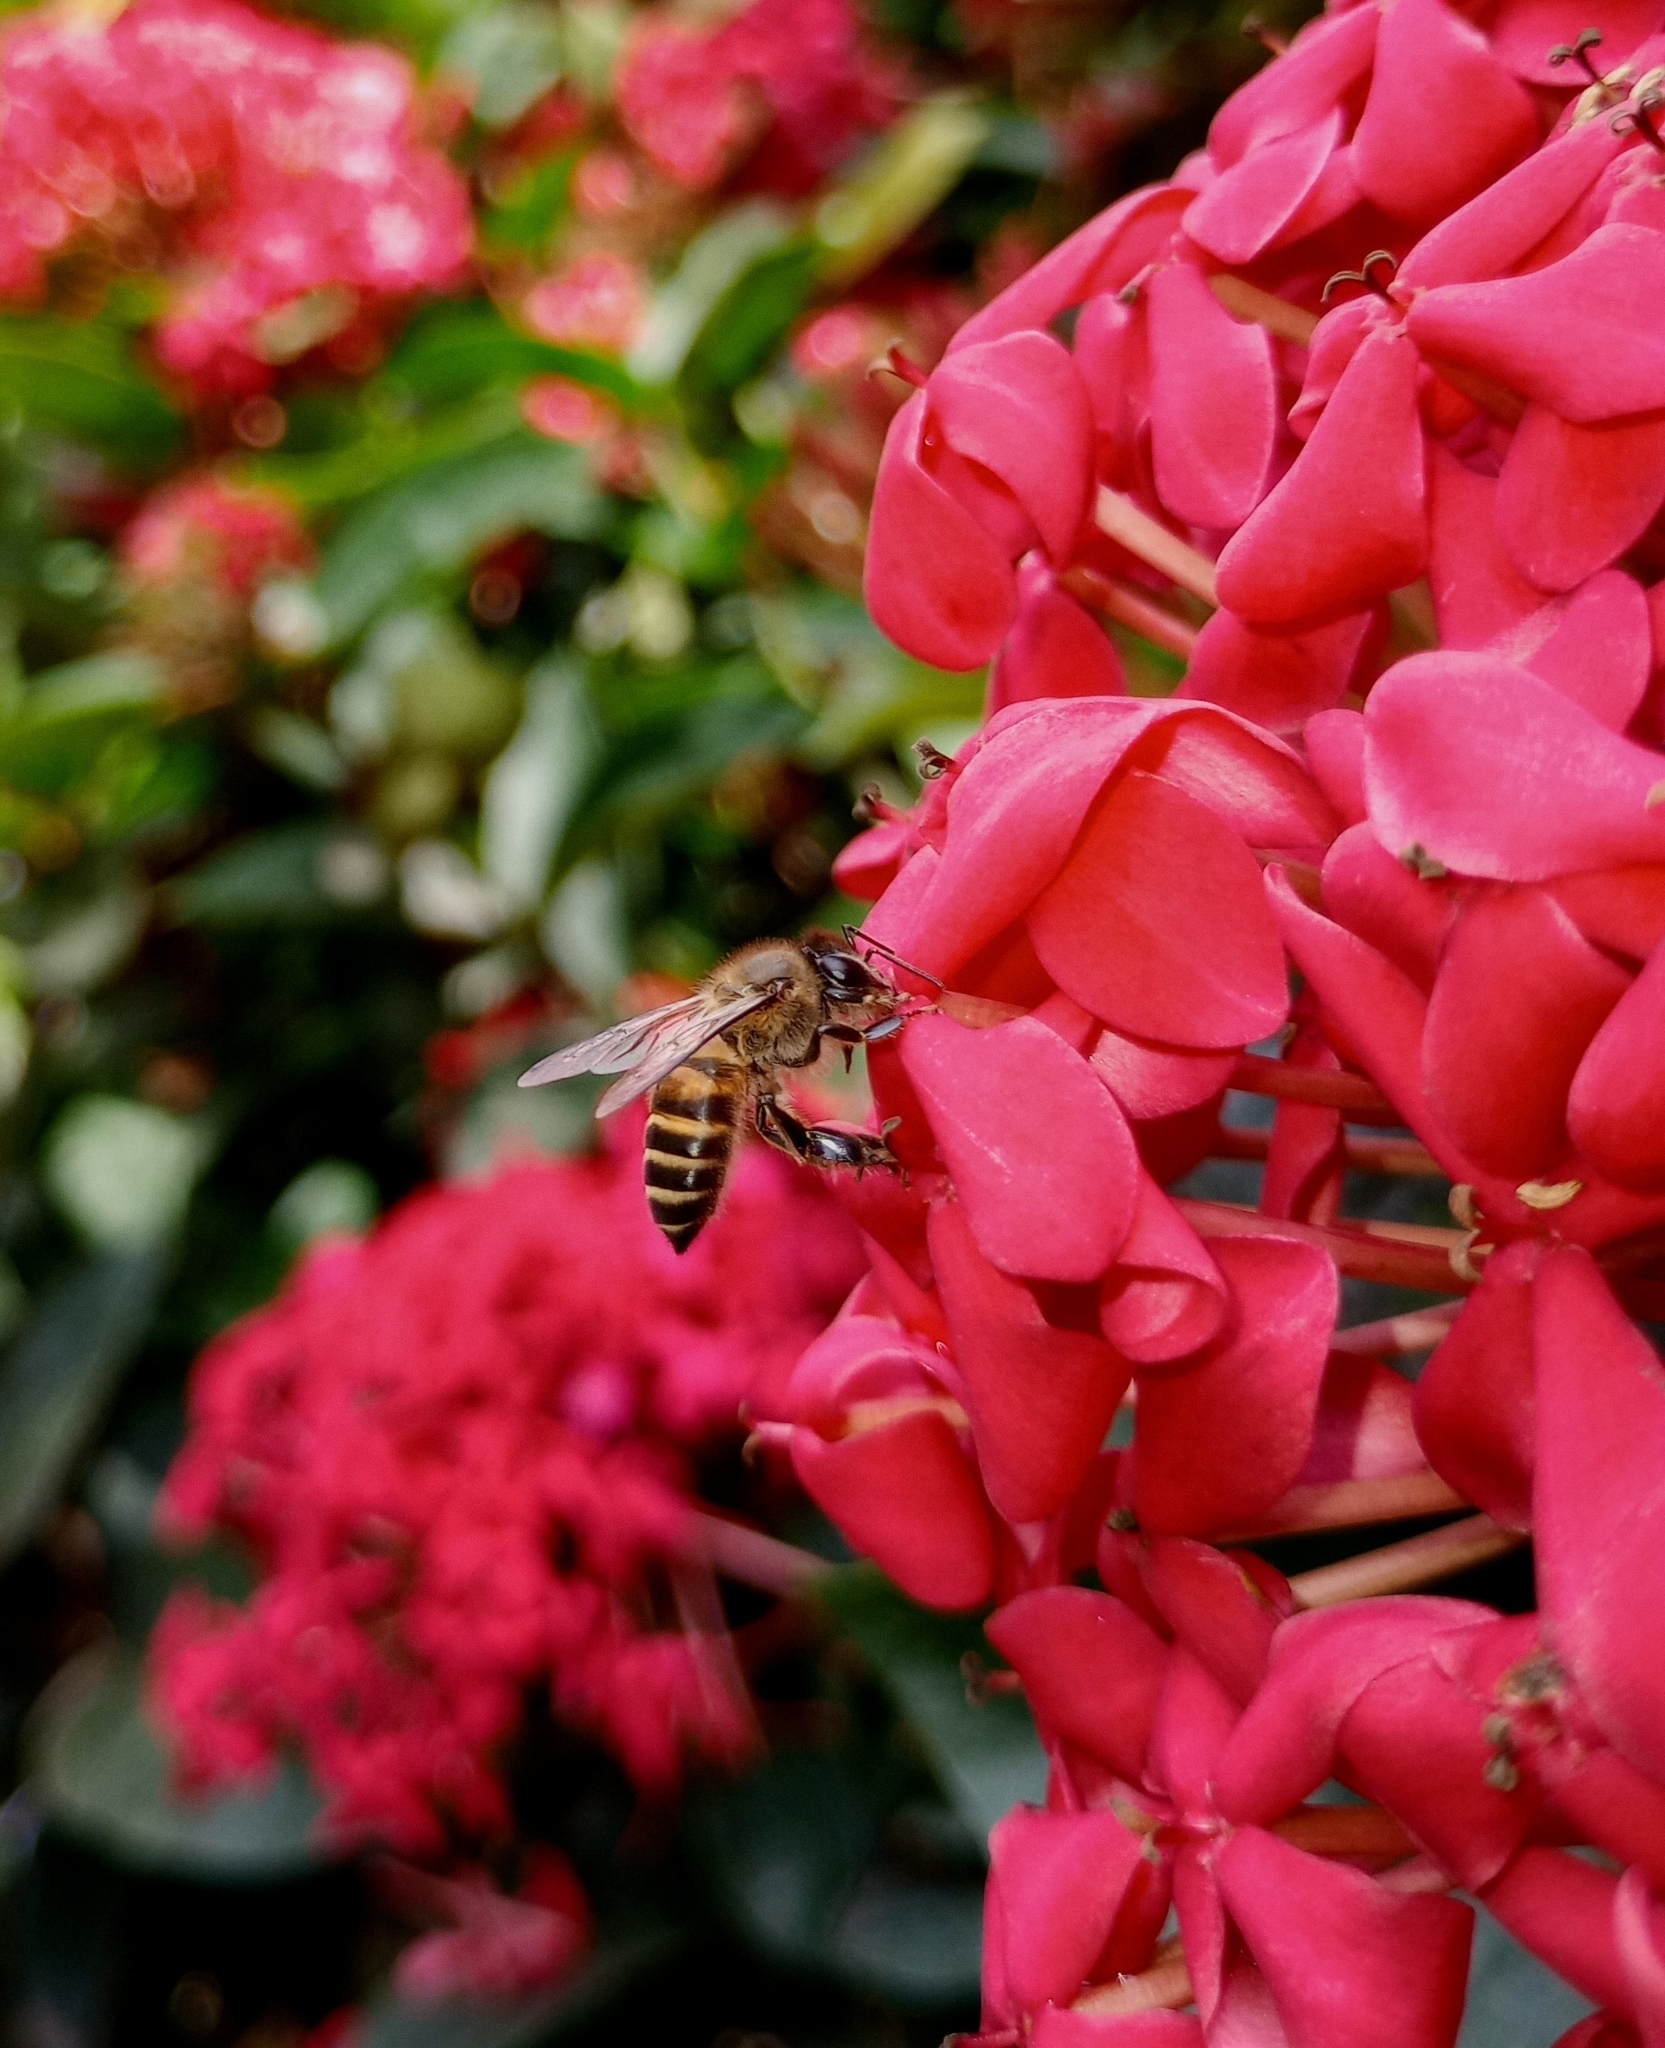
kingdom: Animalia
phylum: Arthropoda
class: Insecta
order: Hymenoptera
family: Apidae
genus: Apis
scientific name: Apis cerana
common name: Honey bee
